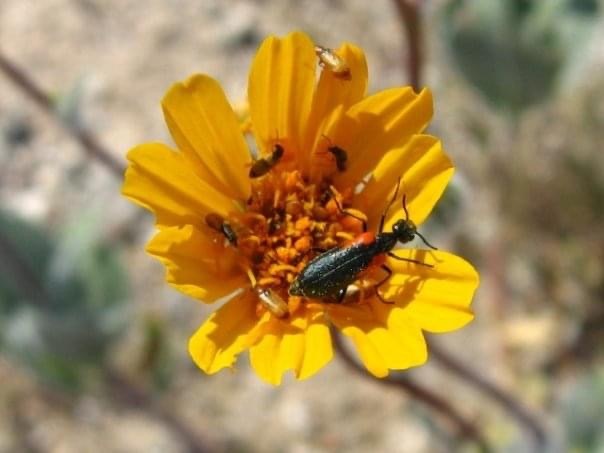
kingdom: Animalia
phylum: Arthropoda
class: Insecta
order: Coleoptera
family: Meloidae
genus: Eupompha
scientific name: Eupompha elegans
